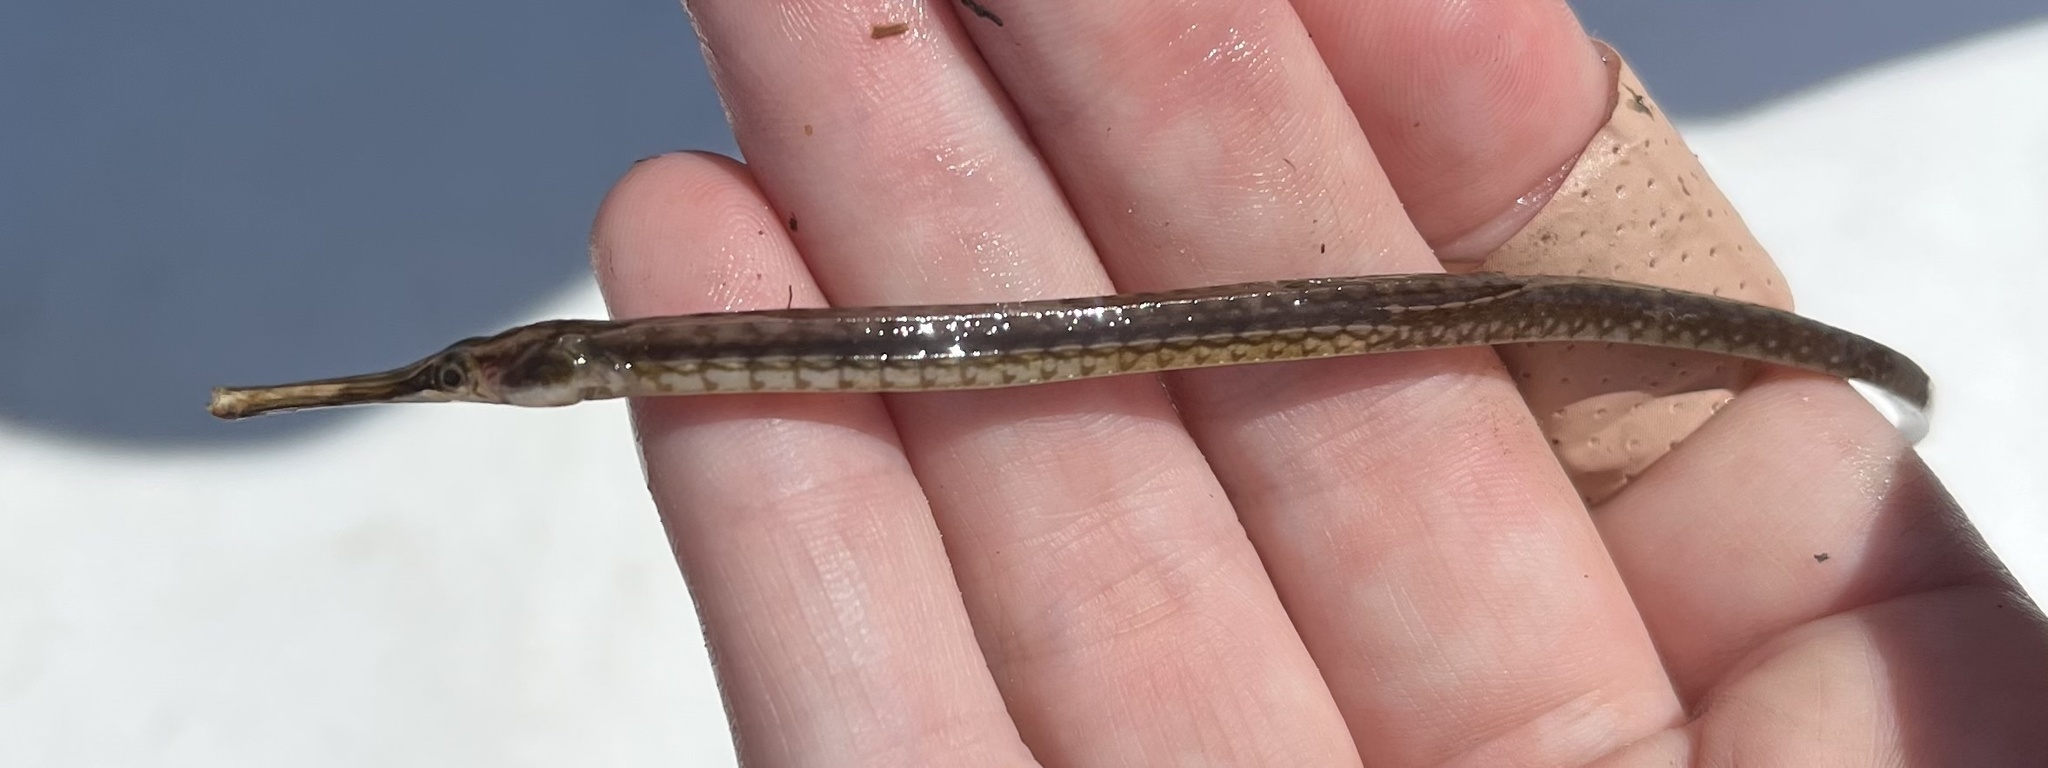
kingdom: Animalia
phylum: Chordata
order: Syngnathiformes
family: Syngnathidae
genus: Syngnathus
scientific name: Syngnathus louisianae
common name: Chain pipefish
